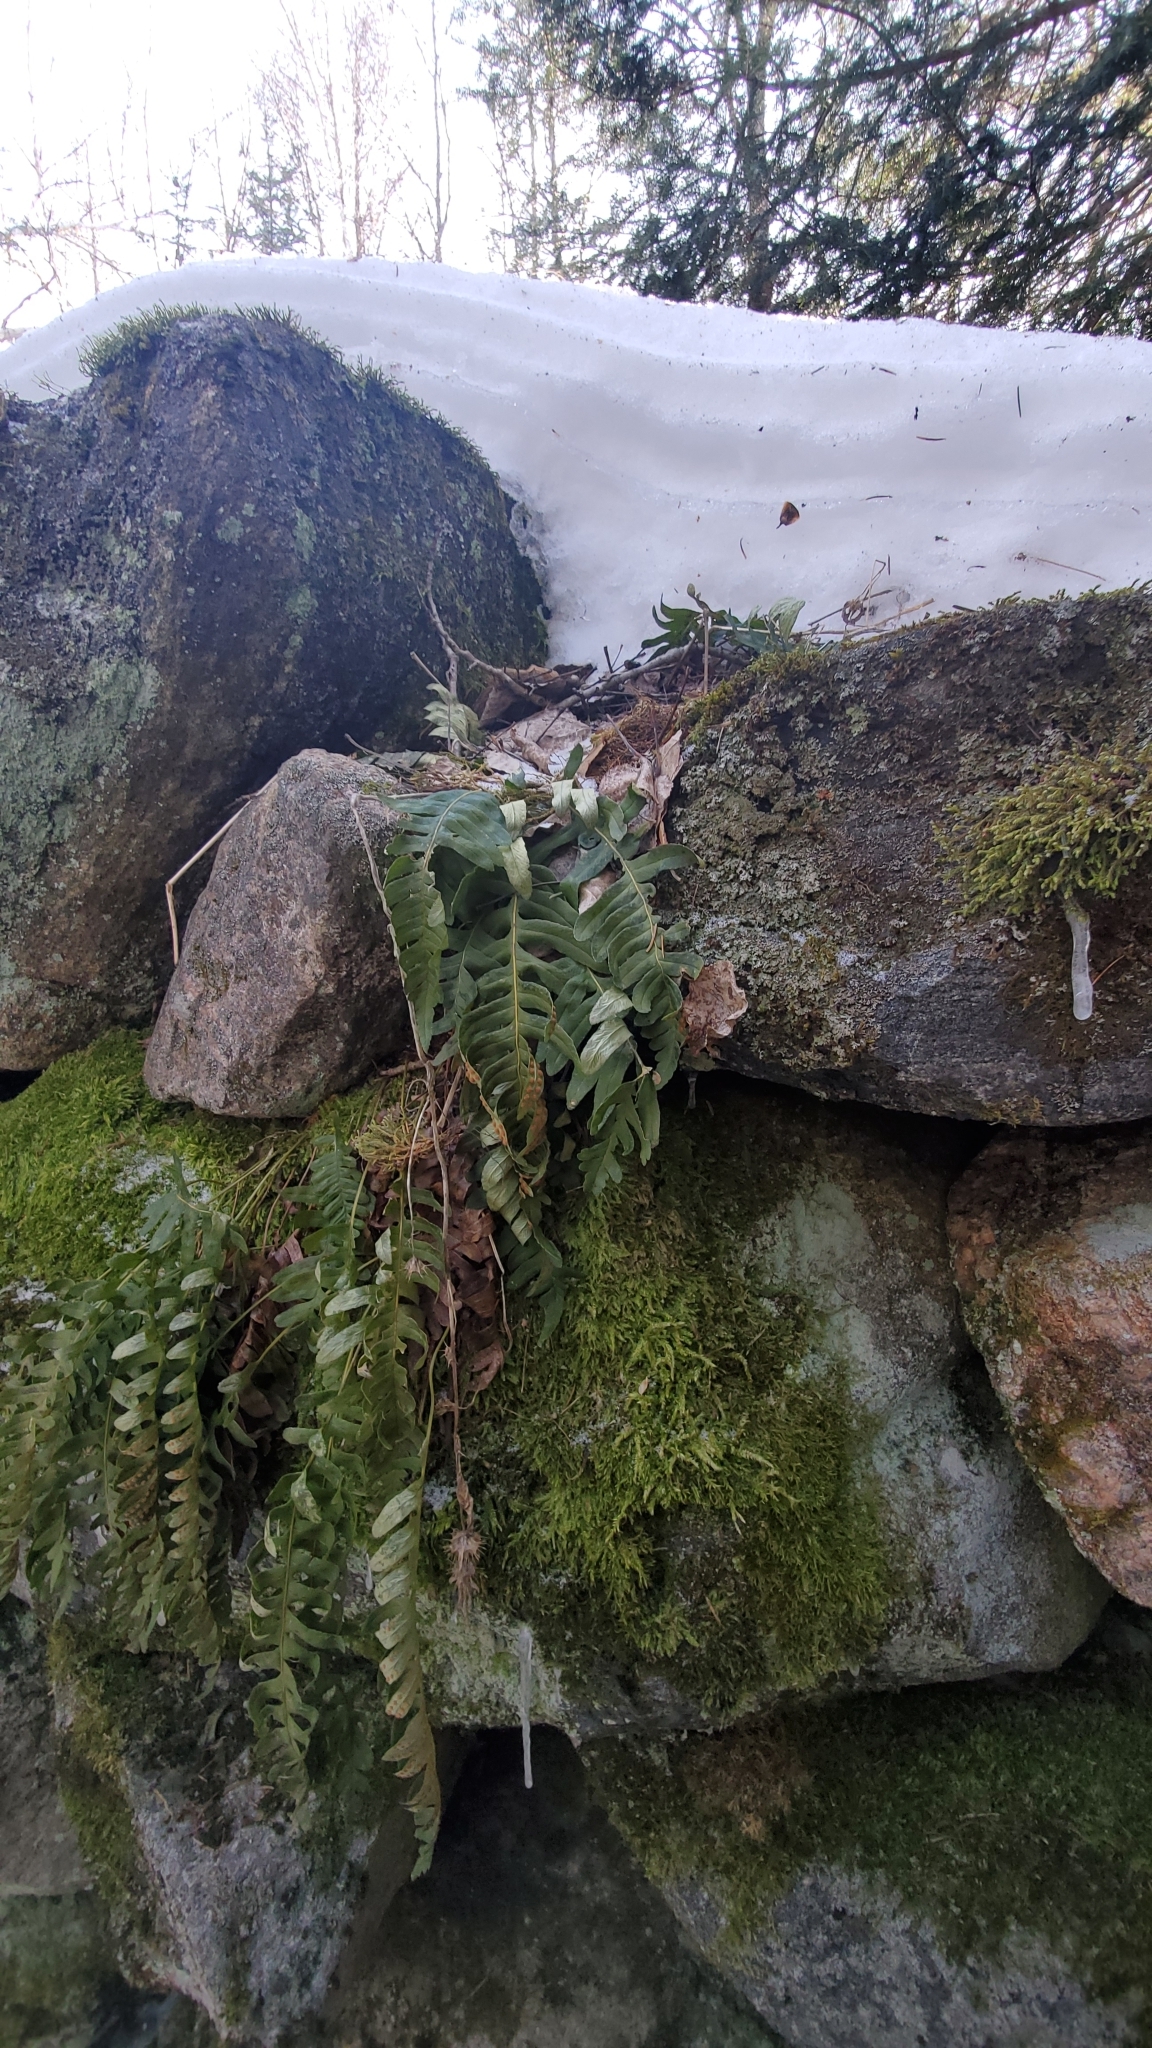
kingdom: Plantae
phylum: Tracheophyta
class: Polypodiopsida
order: Polypodiales
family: Polypodiaceae
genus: Polypodium
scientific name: Polypodium virginianum
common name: American wall fern
